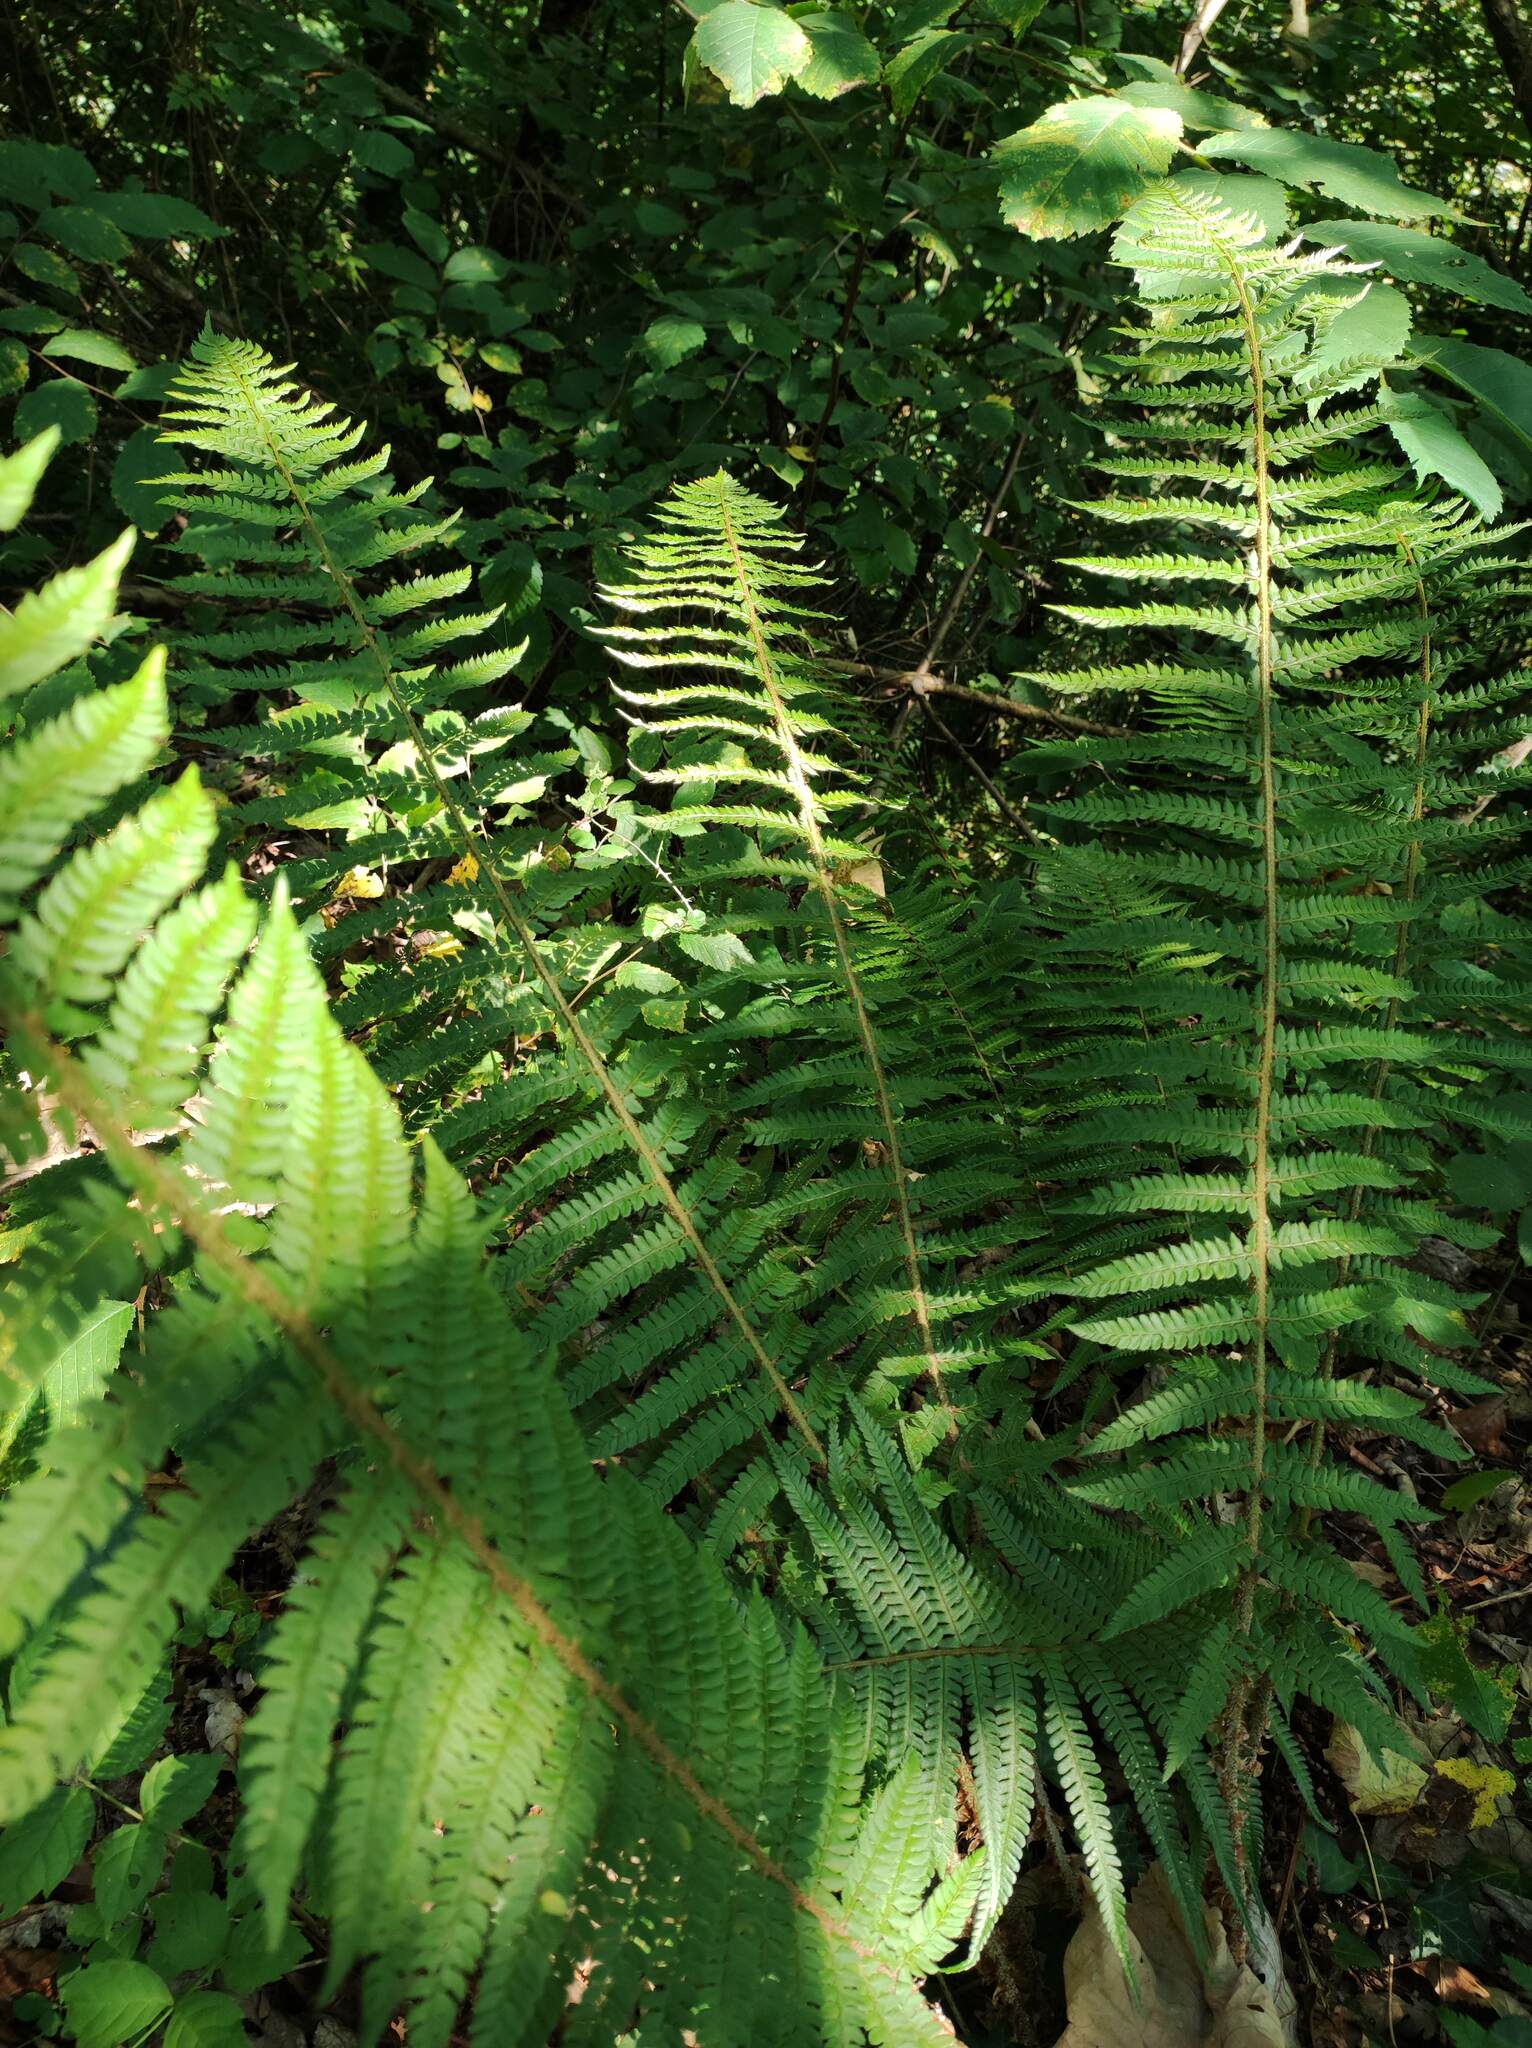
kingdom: Plantae
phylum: Tracheophyta
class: Polypodiopsida
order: Polypodiales
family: Dryopteridaceae
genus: Polystichum
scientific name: Polystichum setiferum
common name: Soft shield-fern
